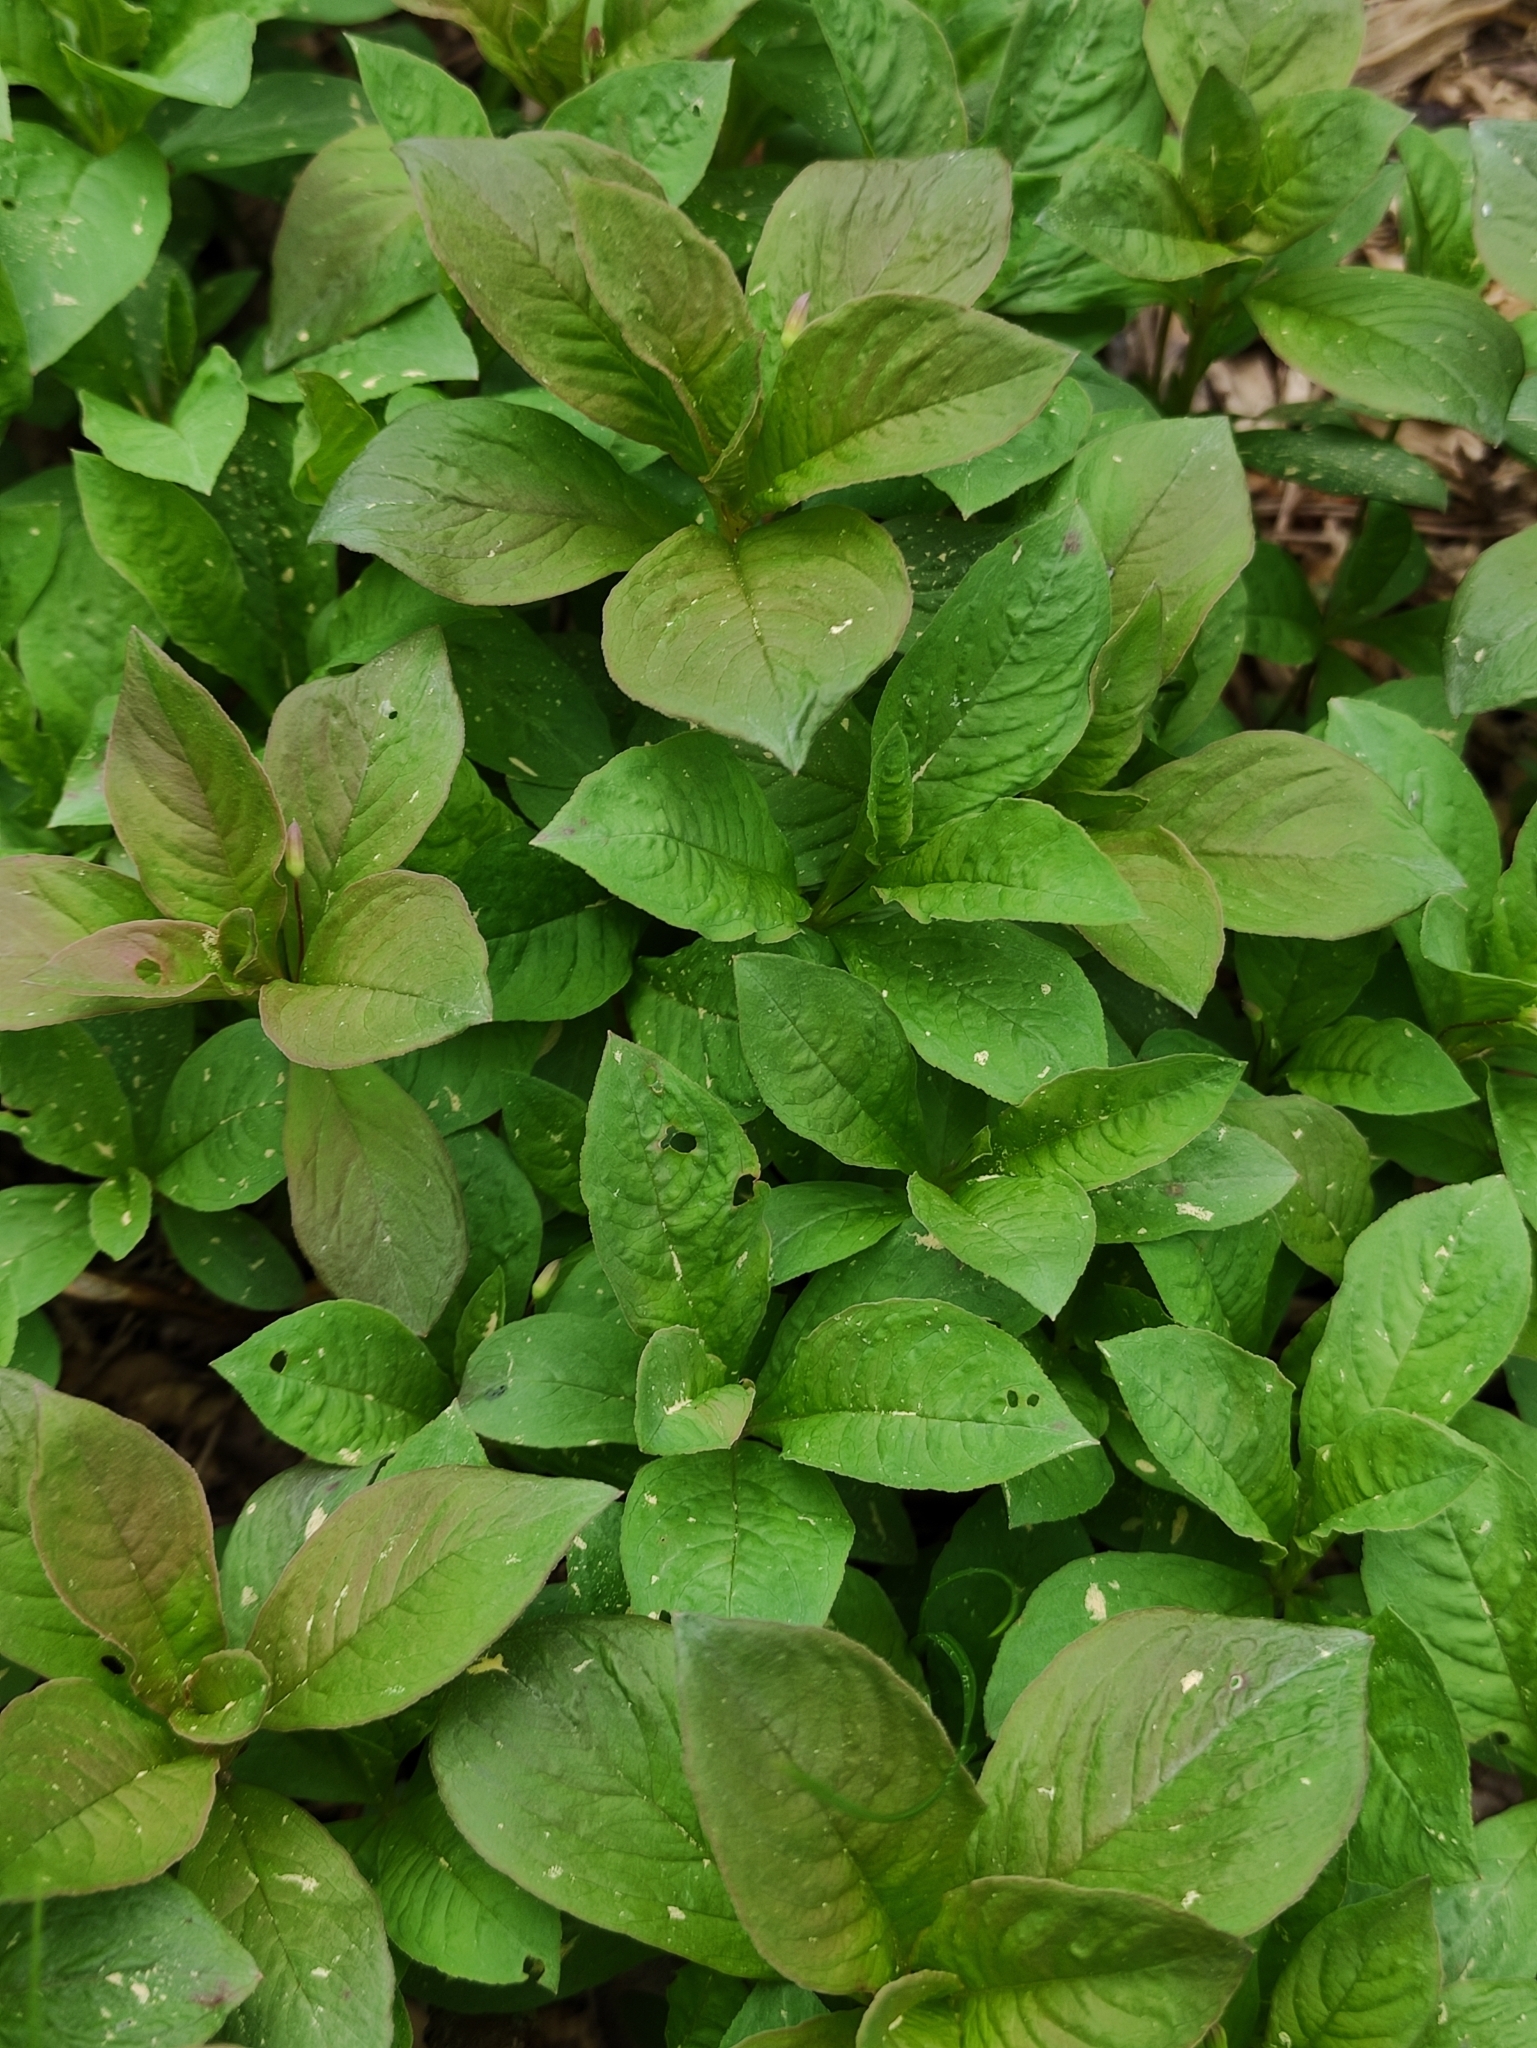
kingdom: Plantae
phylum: Tracheophyta
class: Magnoliopsida
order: Ericales
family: Primulaceae
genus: Lysimachia
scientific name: Lysimachia europaea
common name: Arctic starflower
